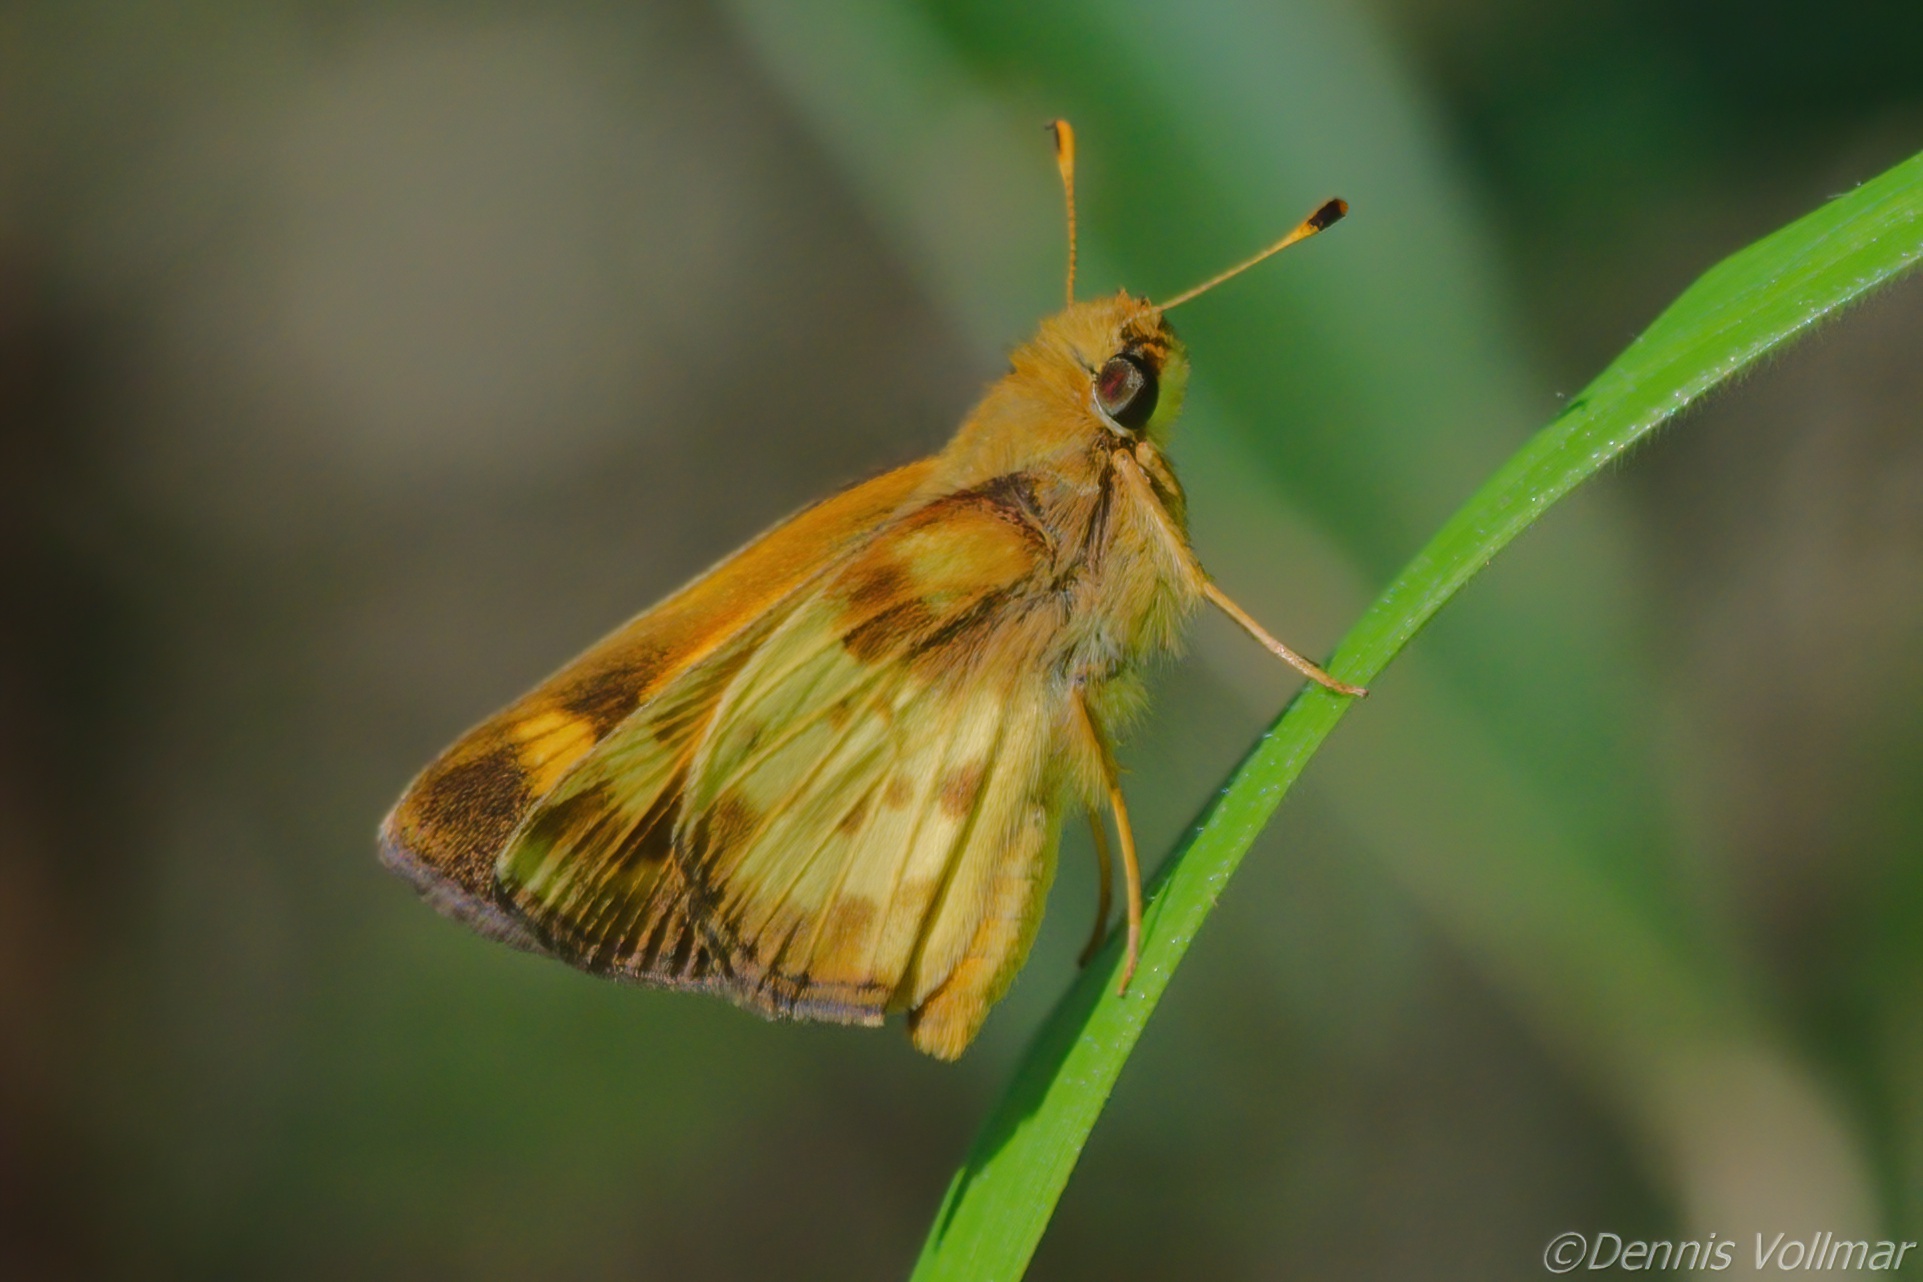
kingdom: Animalia
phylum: Arthropoda
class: Insecta
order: Lepidoptera
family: Hesperiidae
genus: Lon
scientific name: Lon zabulon
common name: Zabulon skipper
